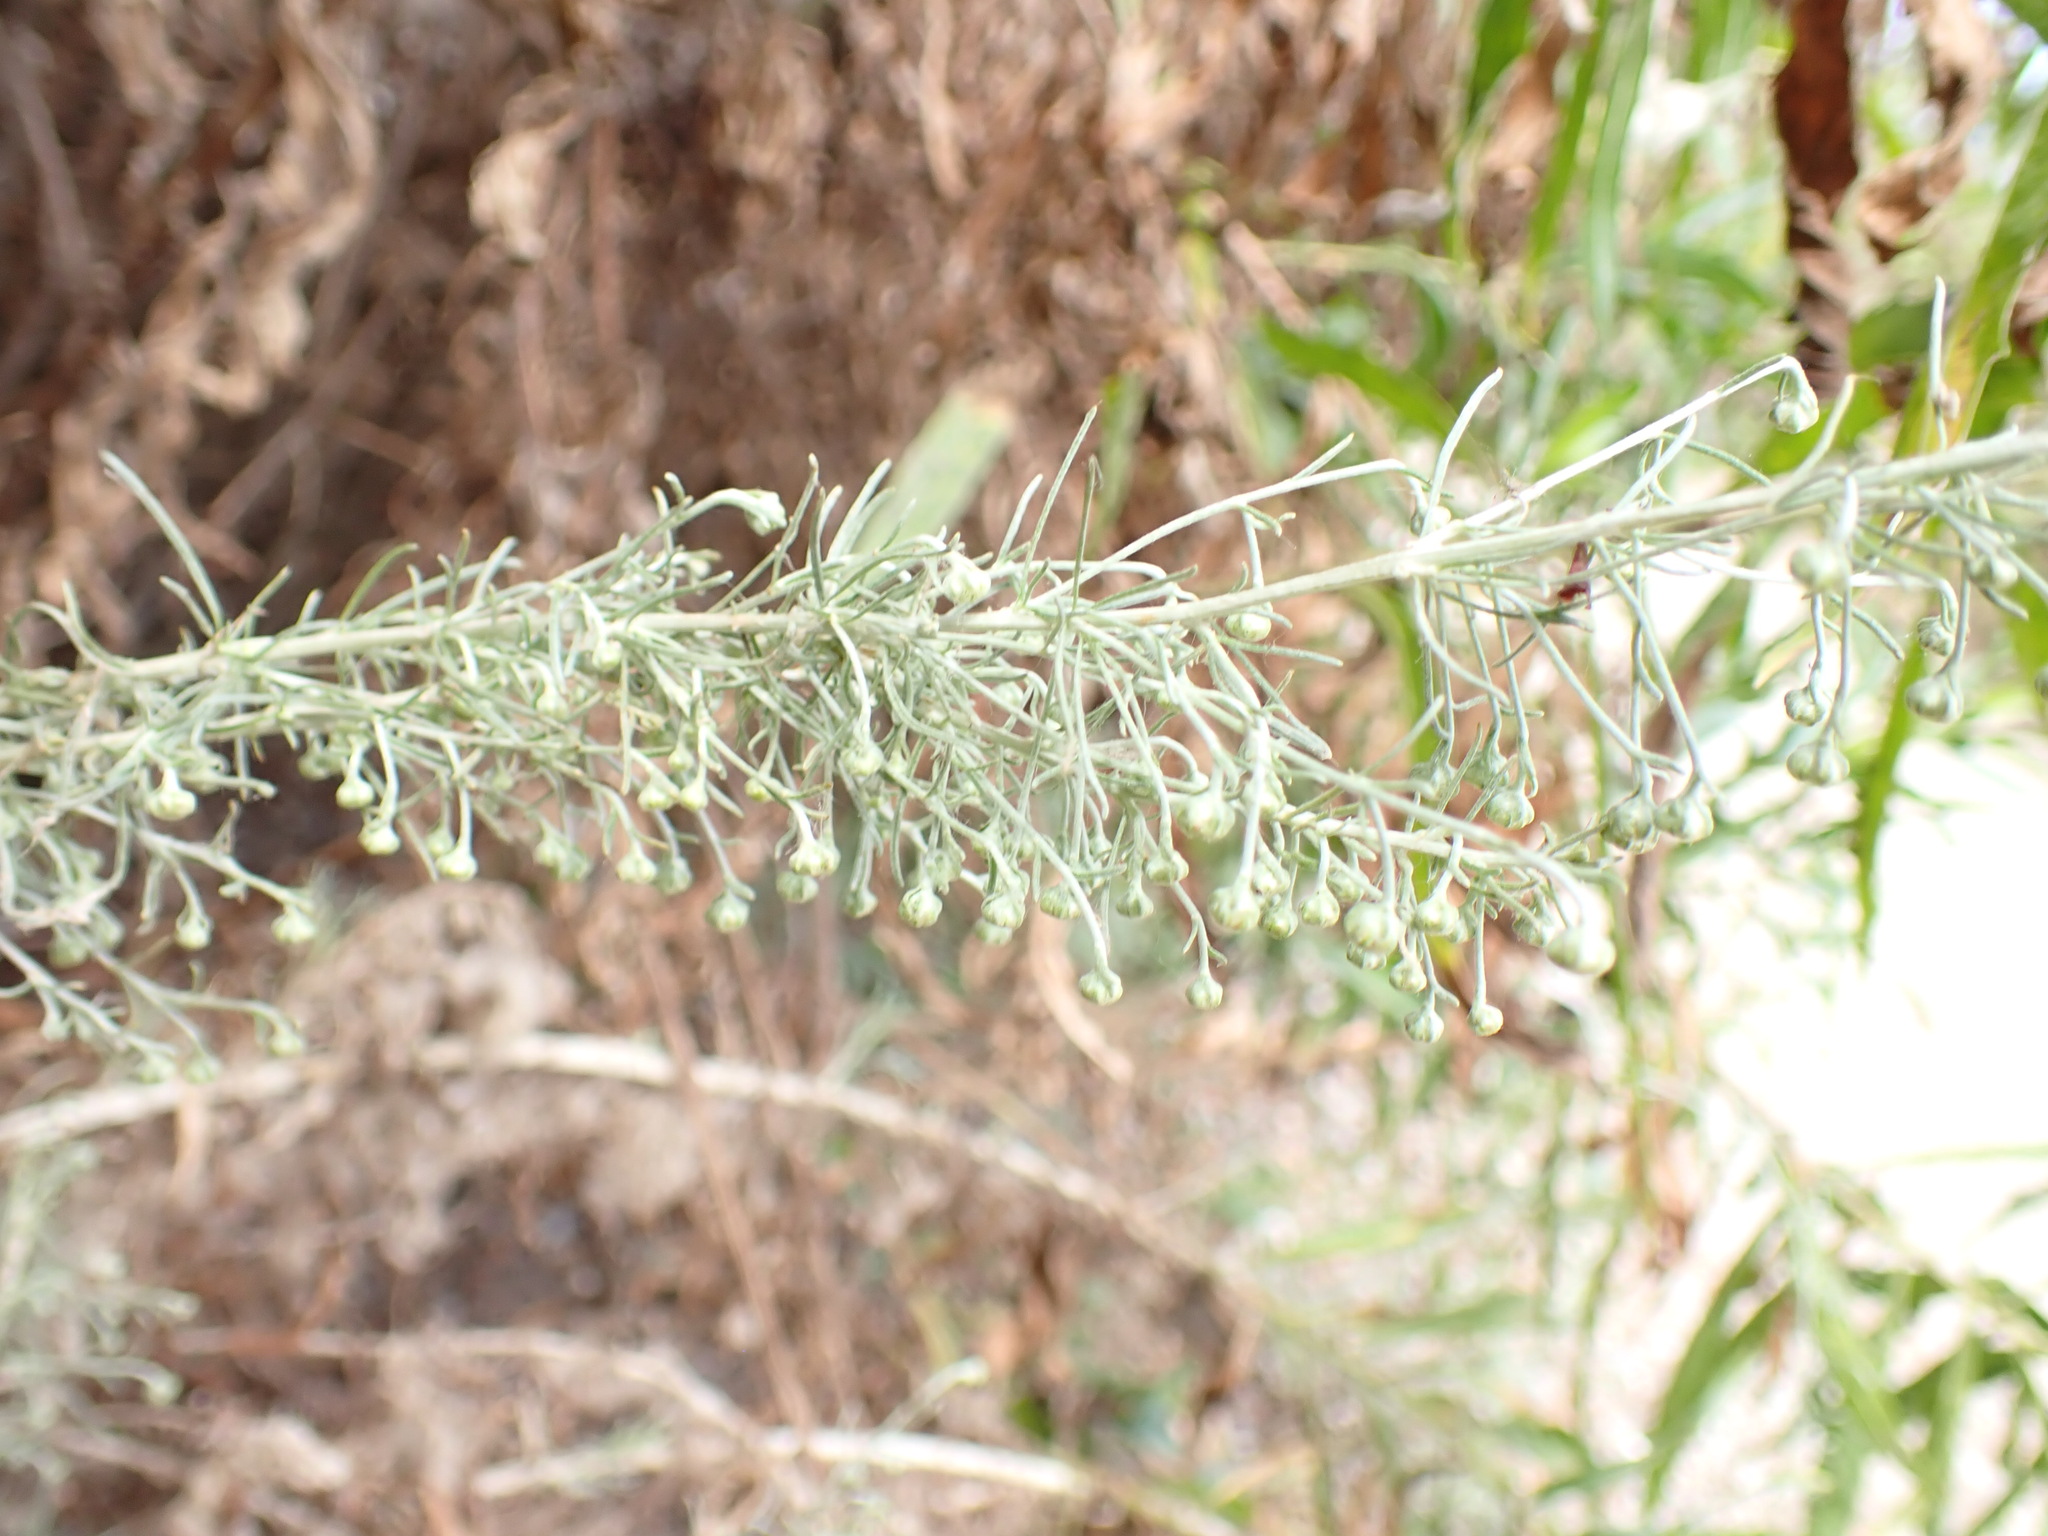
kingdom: Plantae
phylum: Tracheophyta
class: Magnoliopsida
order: Asterales
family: Asteraceae
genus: Artemisia
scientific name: Artemisia californica
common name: California sagebrush
